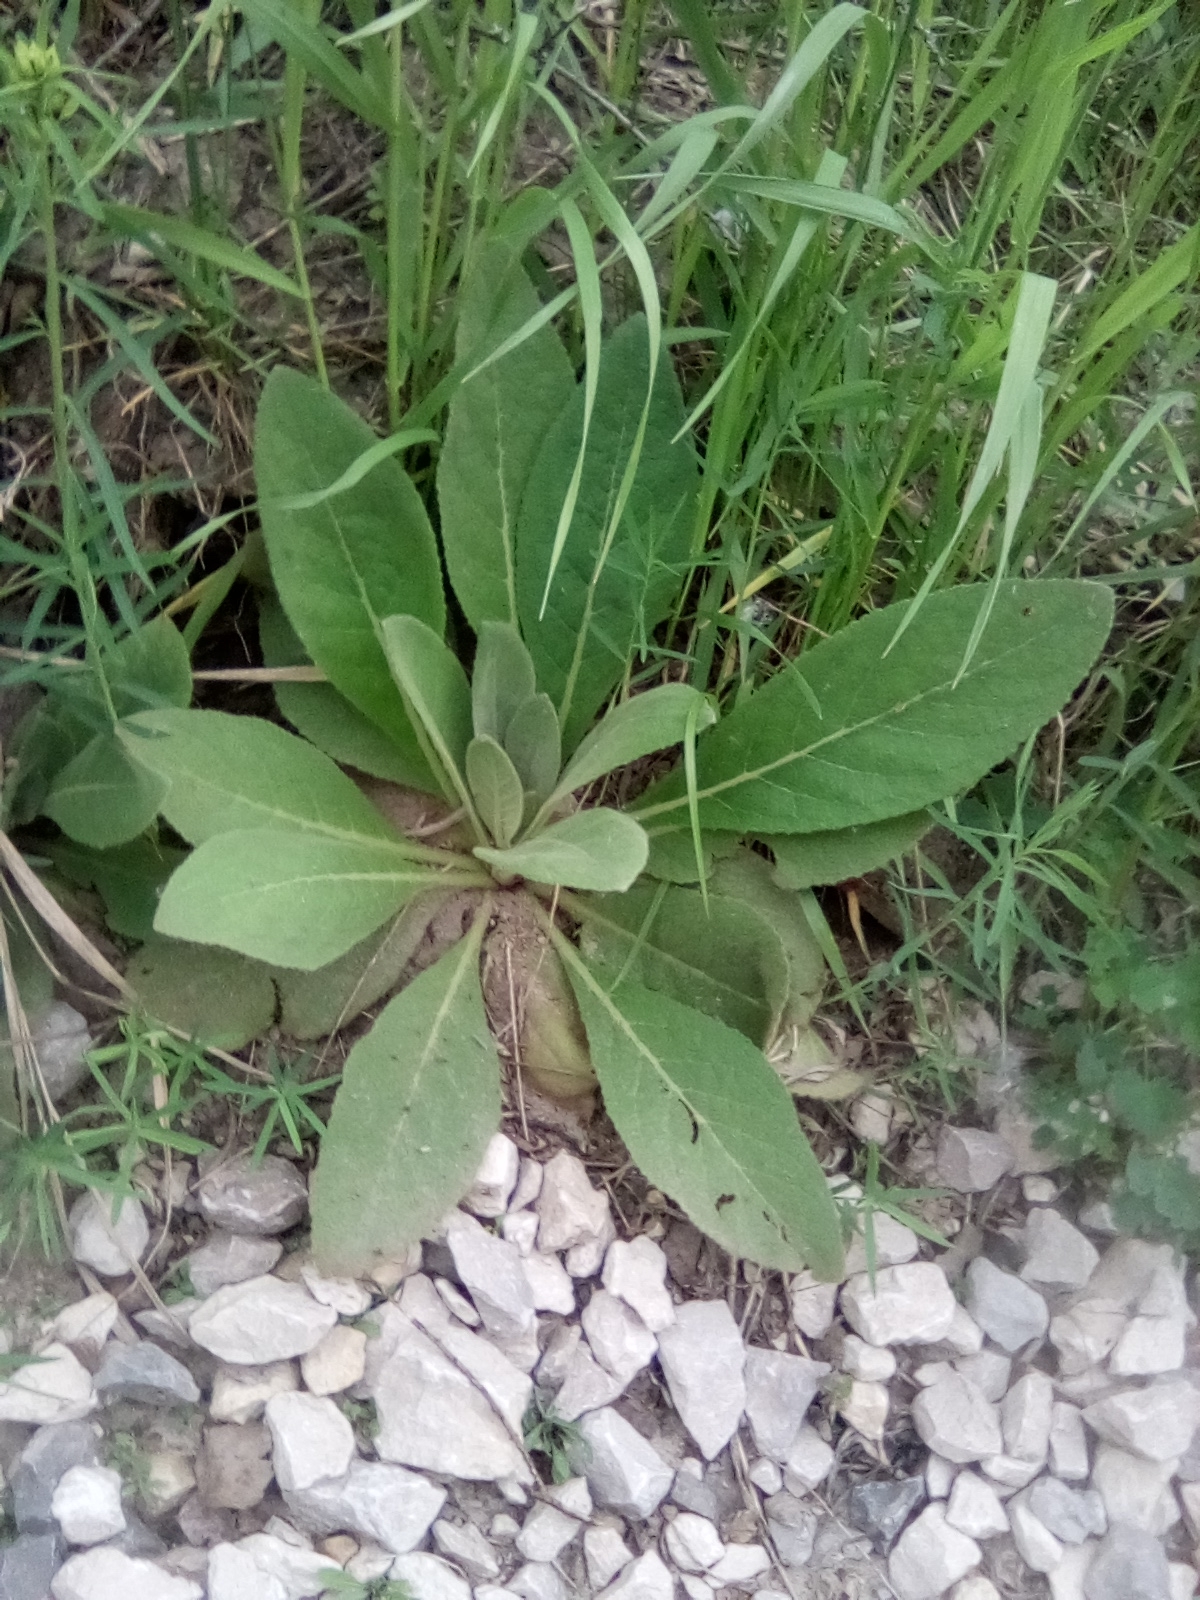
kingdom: Plantae
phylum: Tracheophyta
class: Magnoliopsida
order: Lamiales
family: Scrophulariaceae
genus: Verbascum
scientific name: Verbascum thapsus
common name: Common mullein
